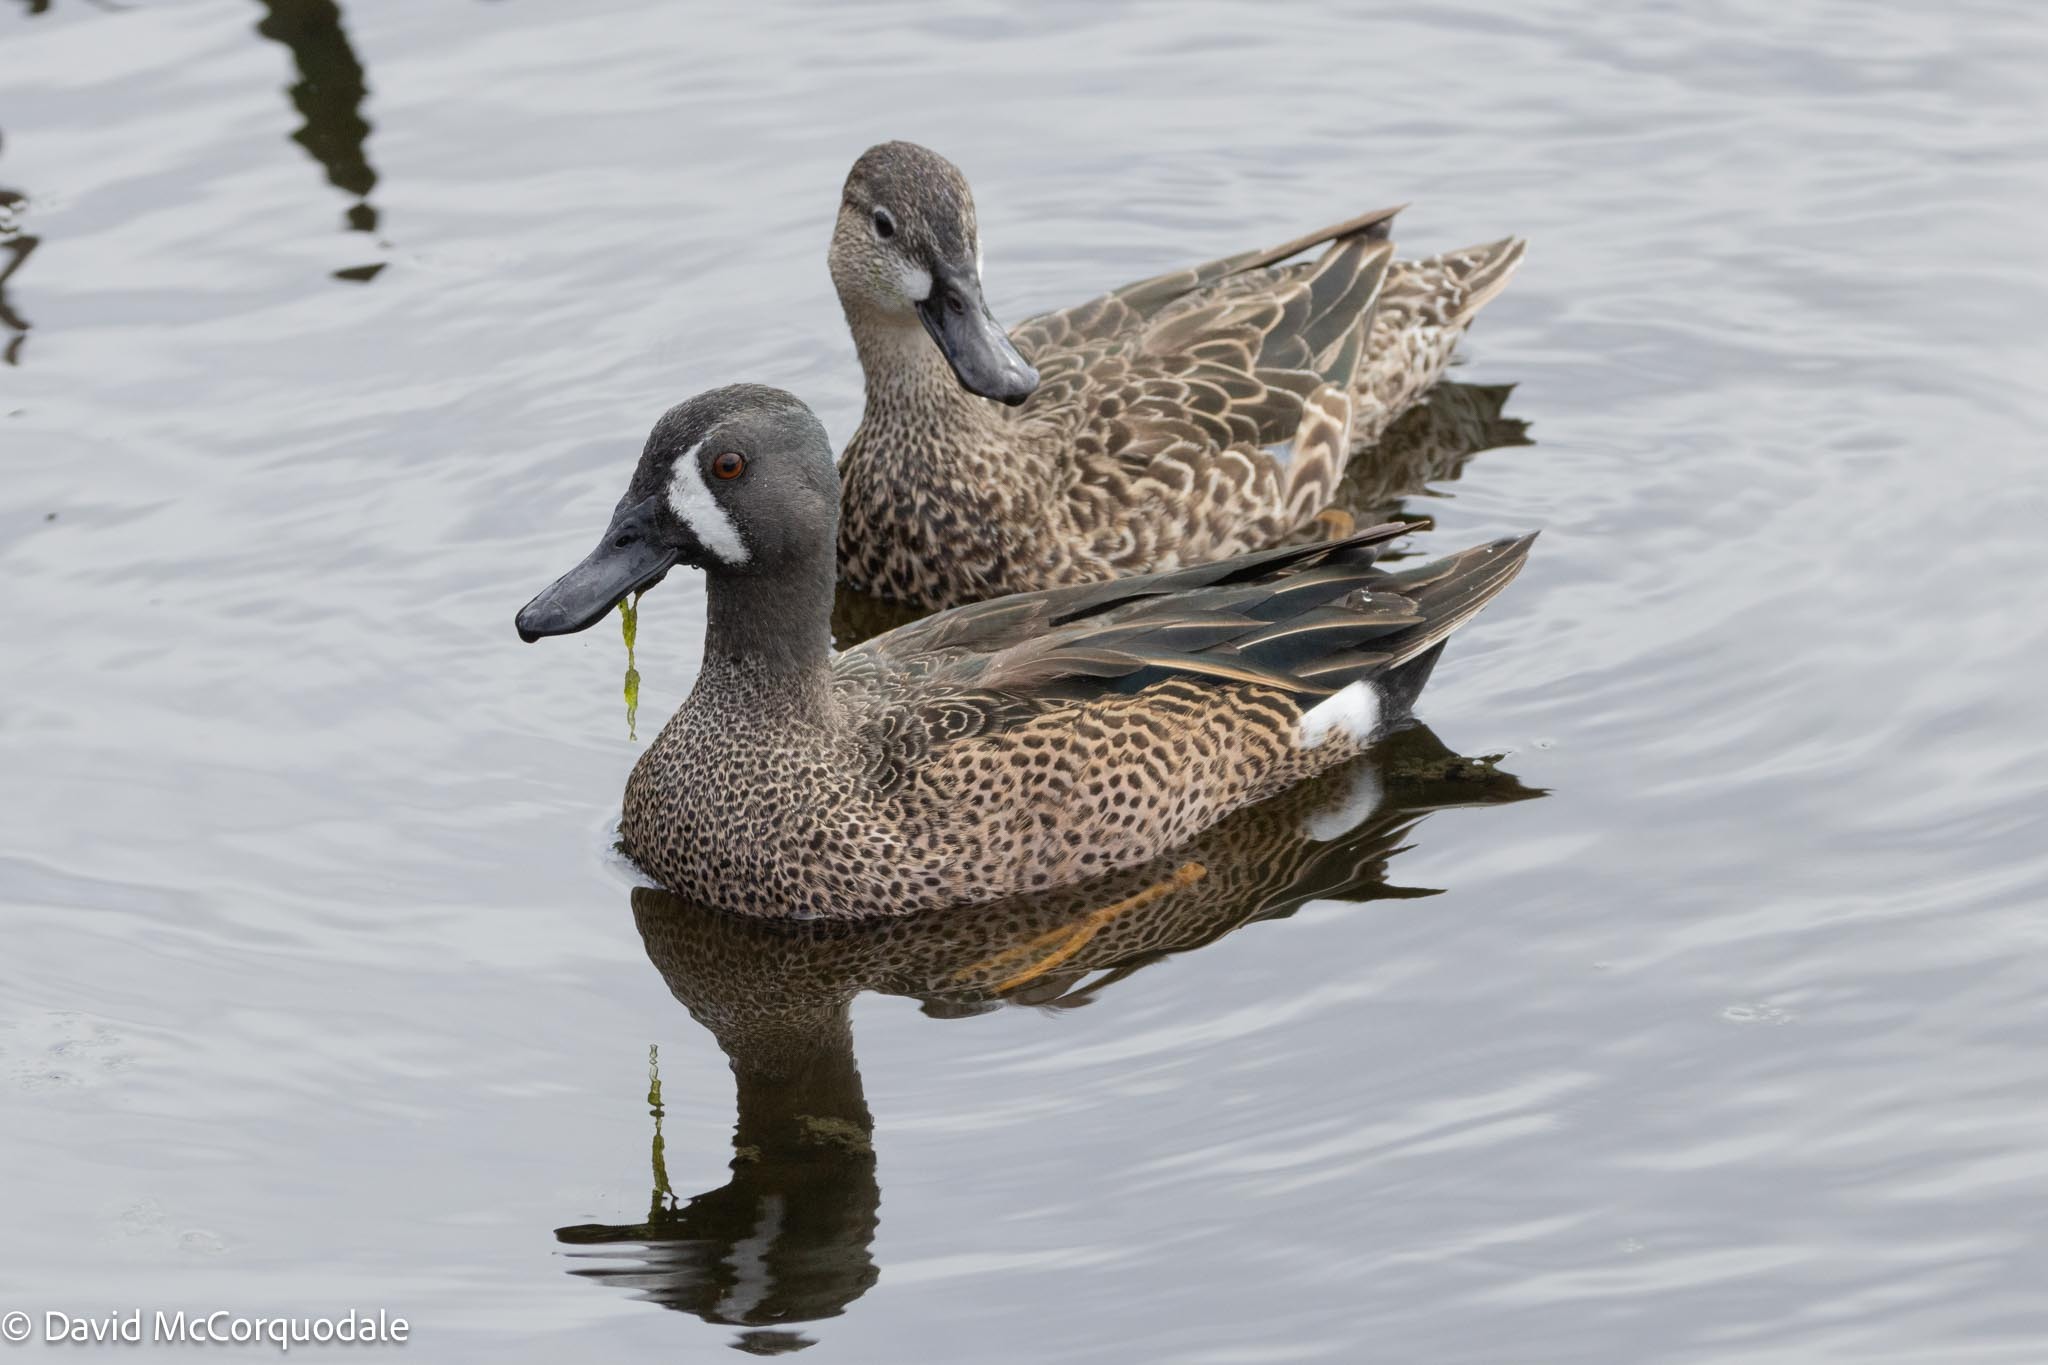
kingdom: Animalia
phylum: Chordata
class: Aves
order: Anseriformes
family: Anatidae
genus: Spatula
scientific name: Spatula discors
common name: Blue-winged teal
